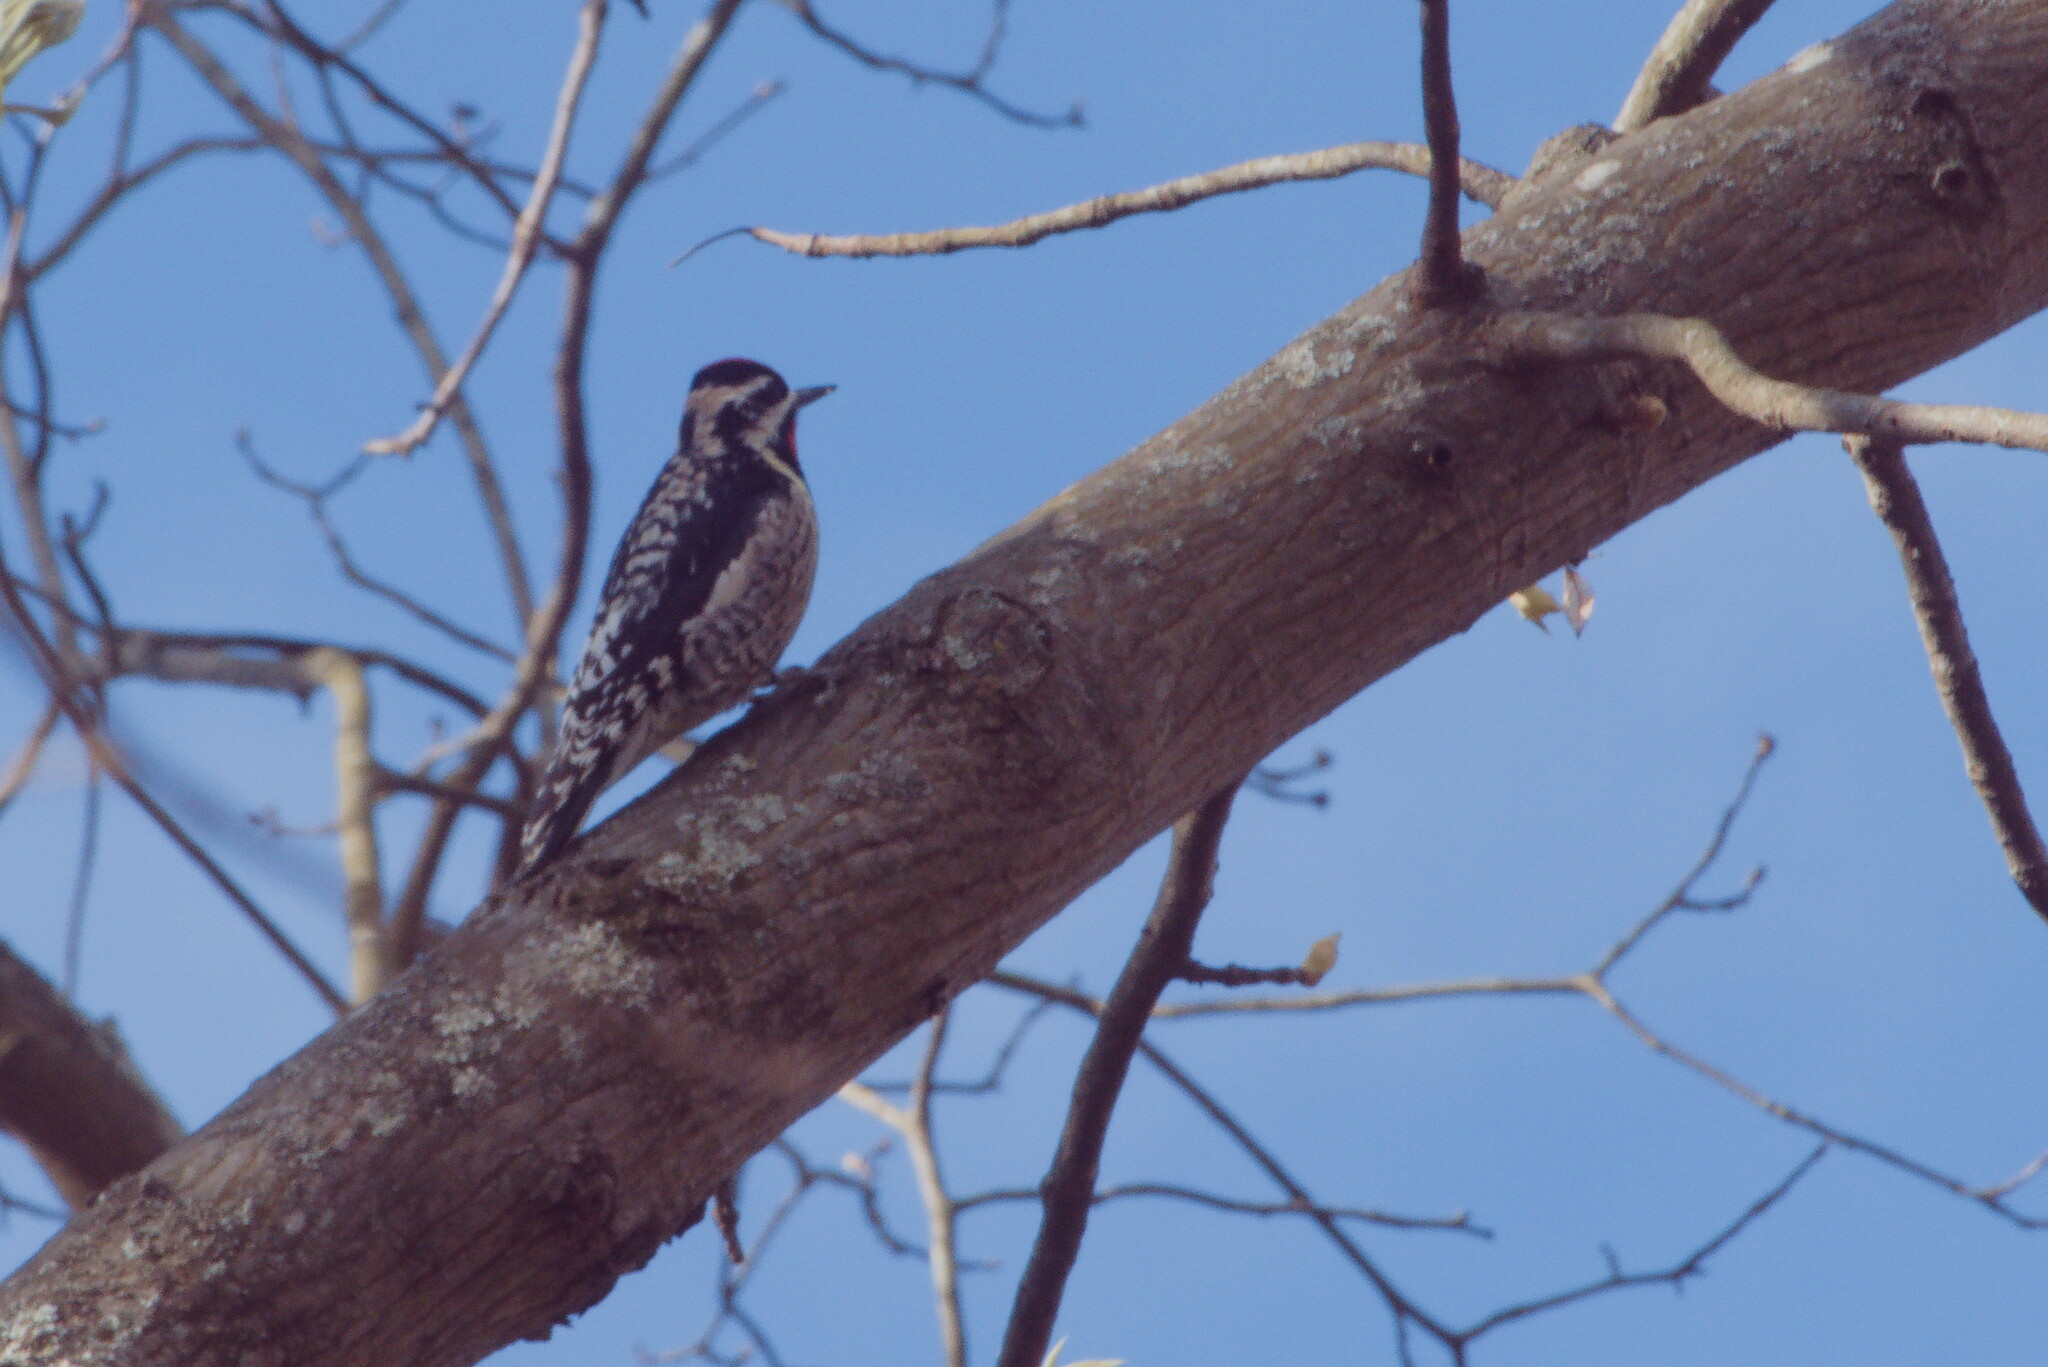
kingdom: Animalia
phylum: Chordata
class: Aves
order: Piciformes
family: Picidae
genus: Sphyrapicus
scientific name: Sphyrapicus varius
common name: Yellow-bellied sapsucker
